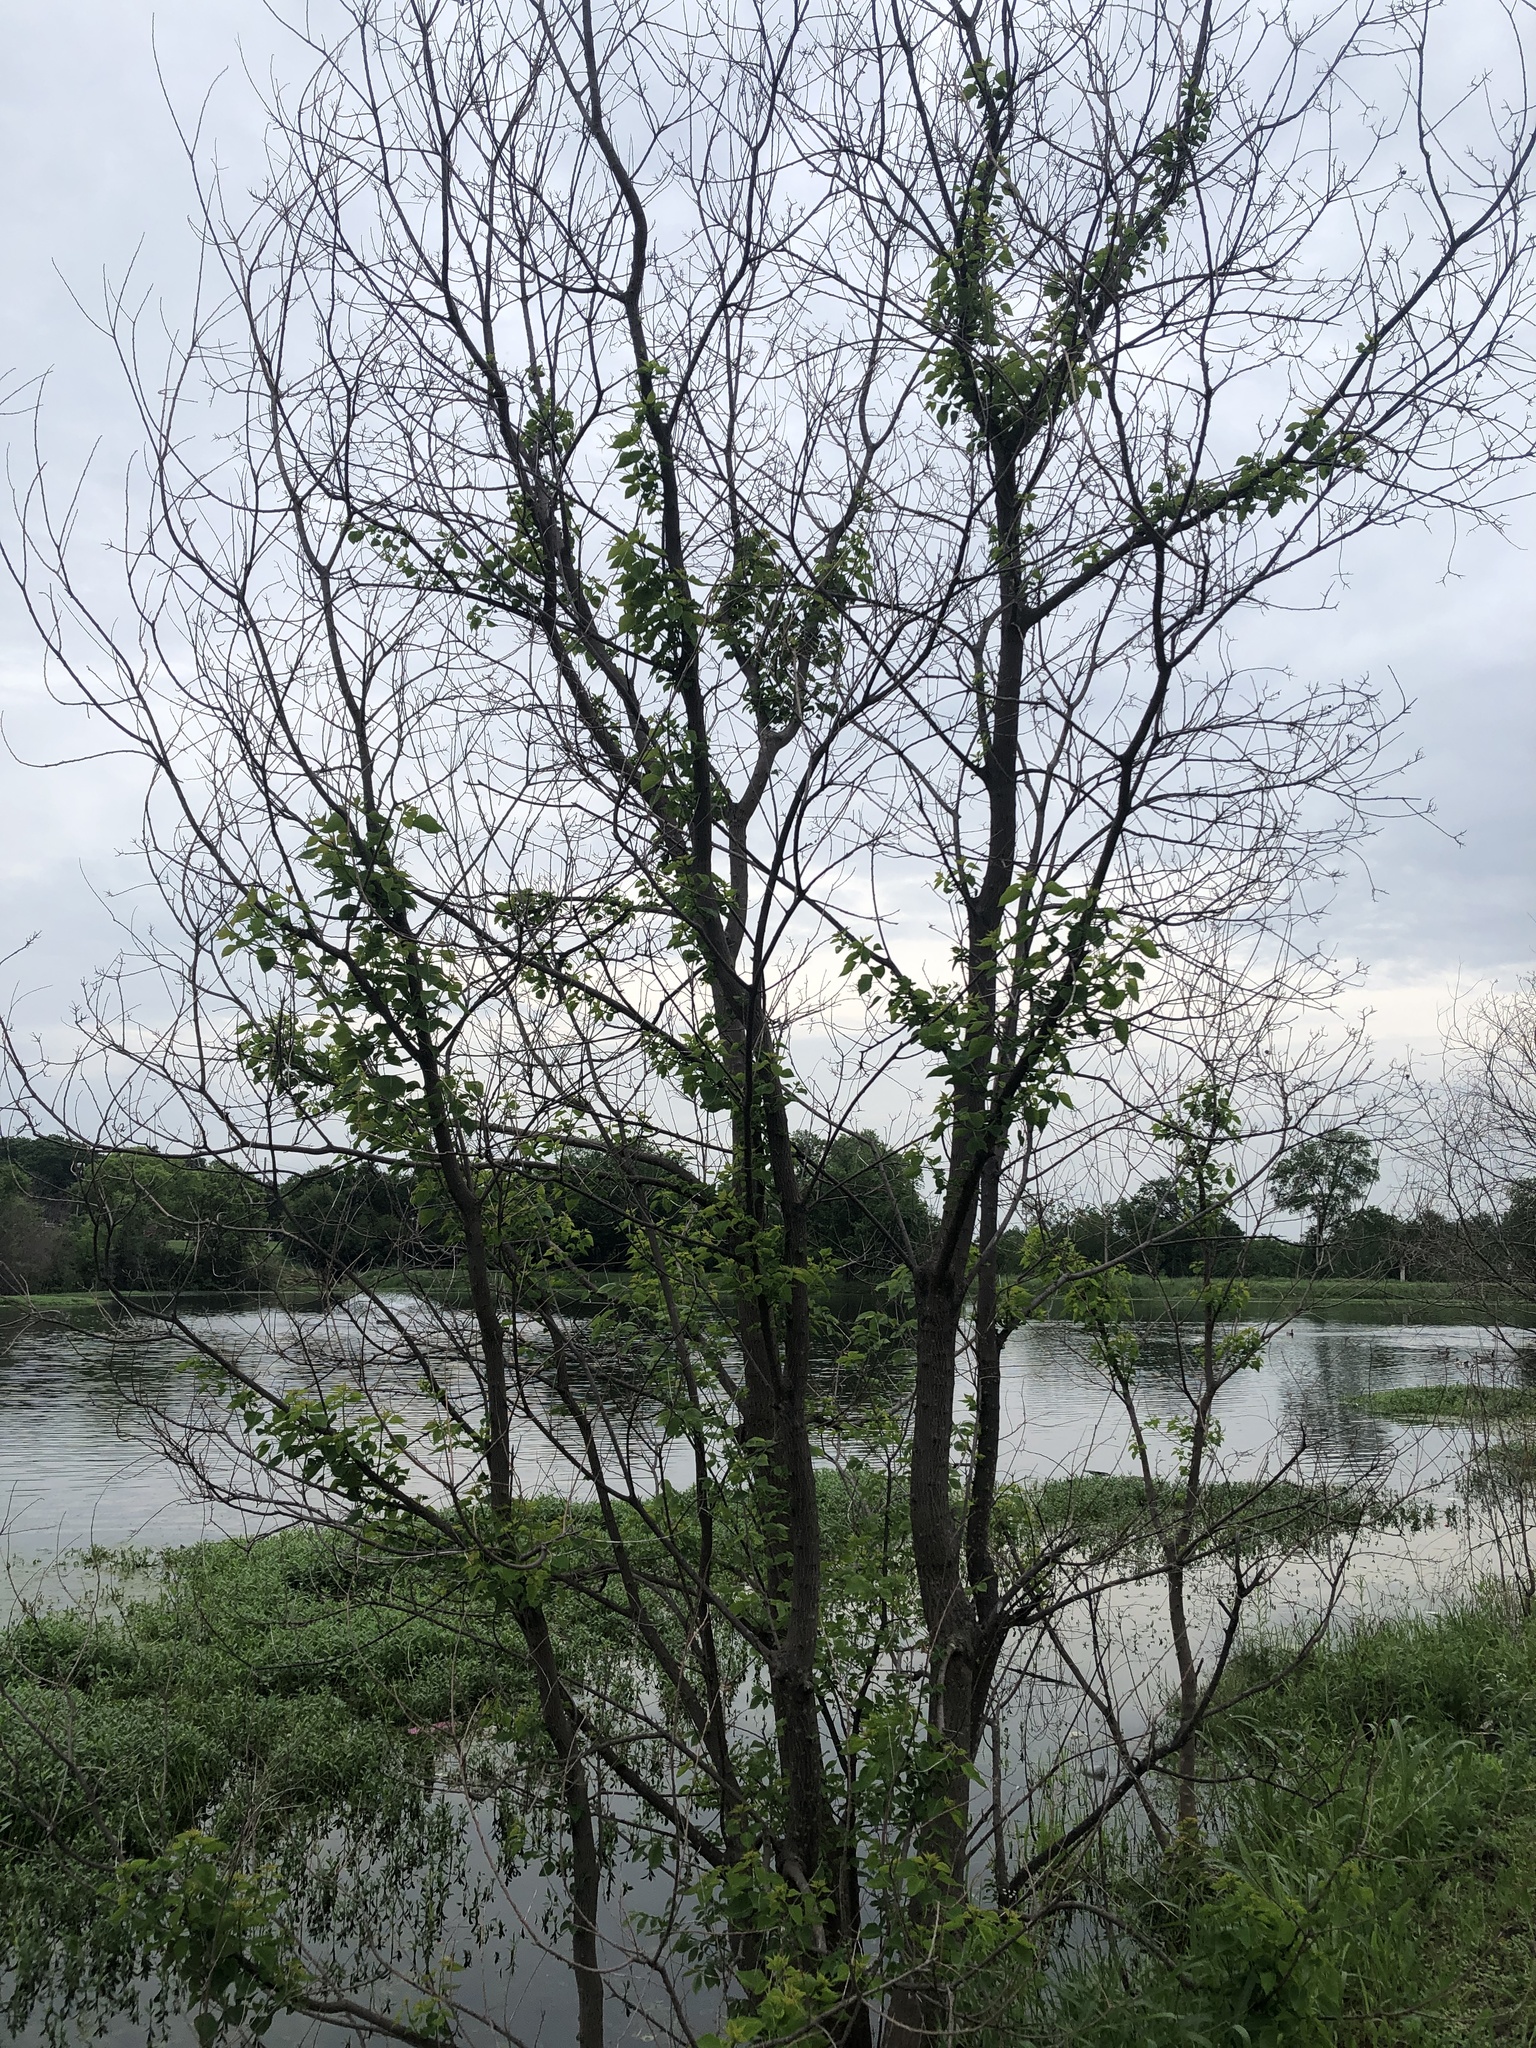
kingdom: Plantae
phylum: Tracheophyta
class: Magnoliopsida
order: Malpighiales
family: Euphorbiaceae
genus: Triadica
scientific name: Triadica sebifera
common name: Chinese tallow
